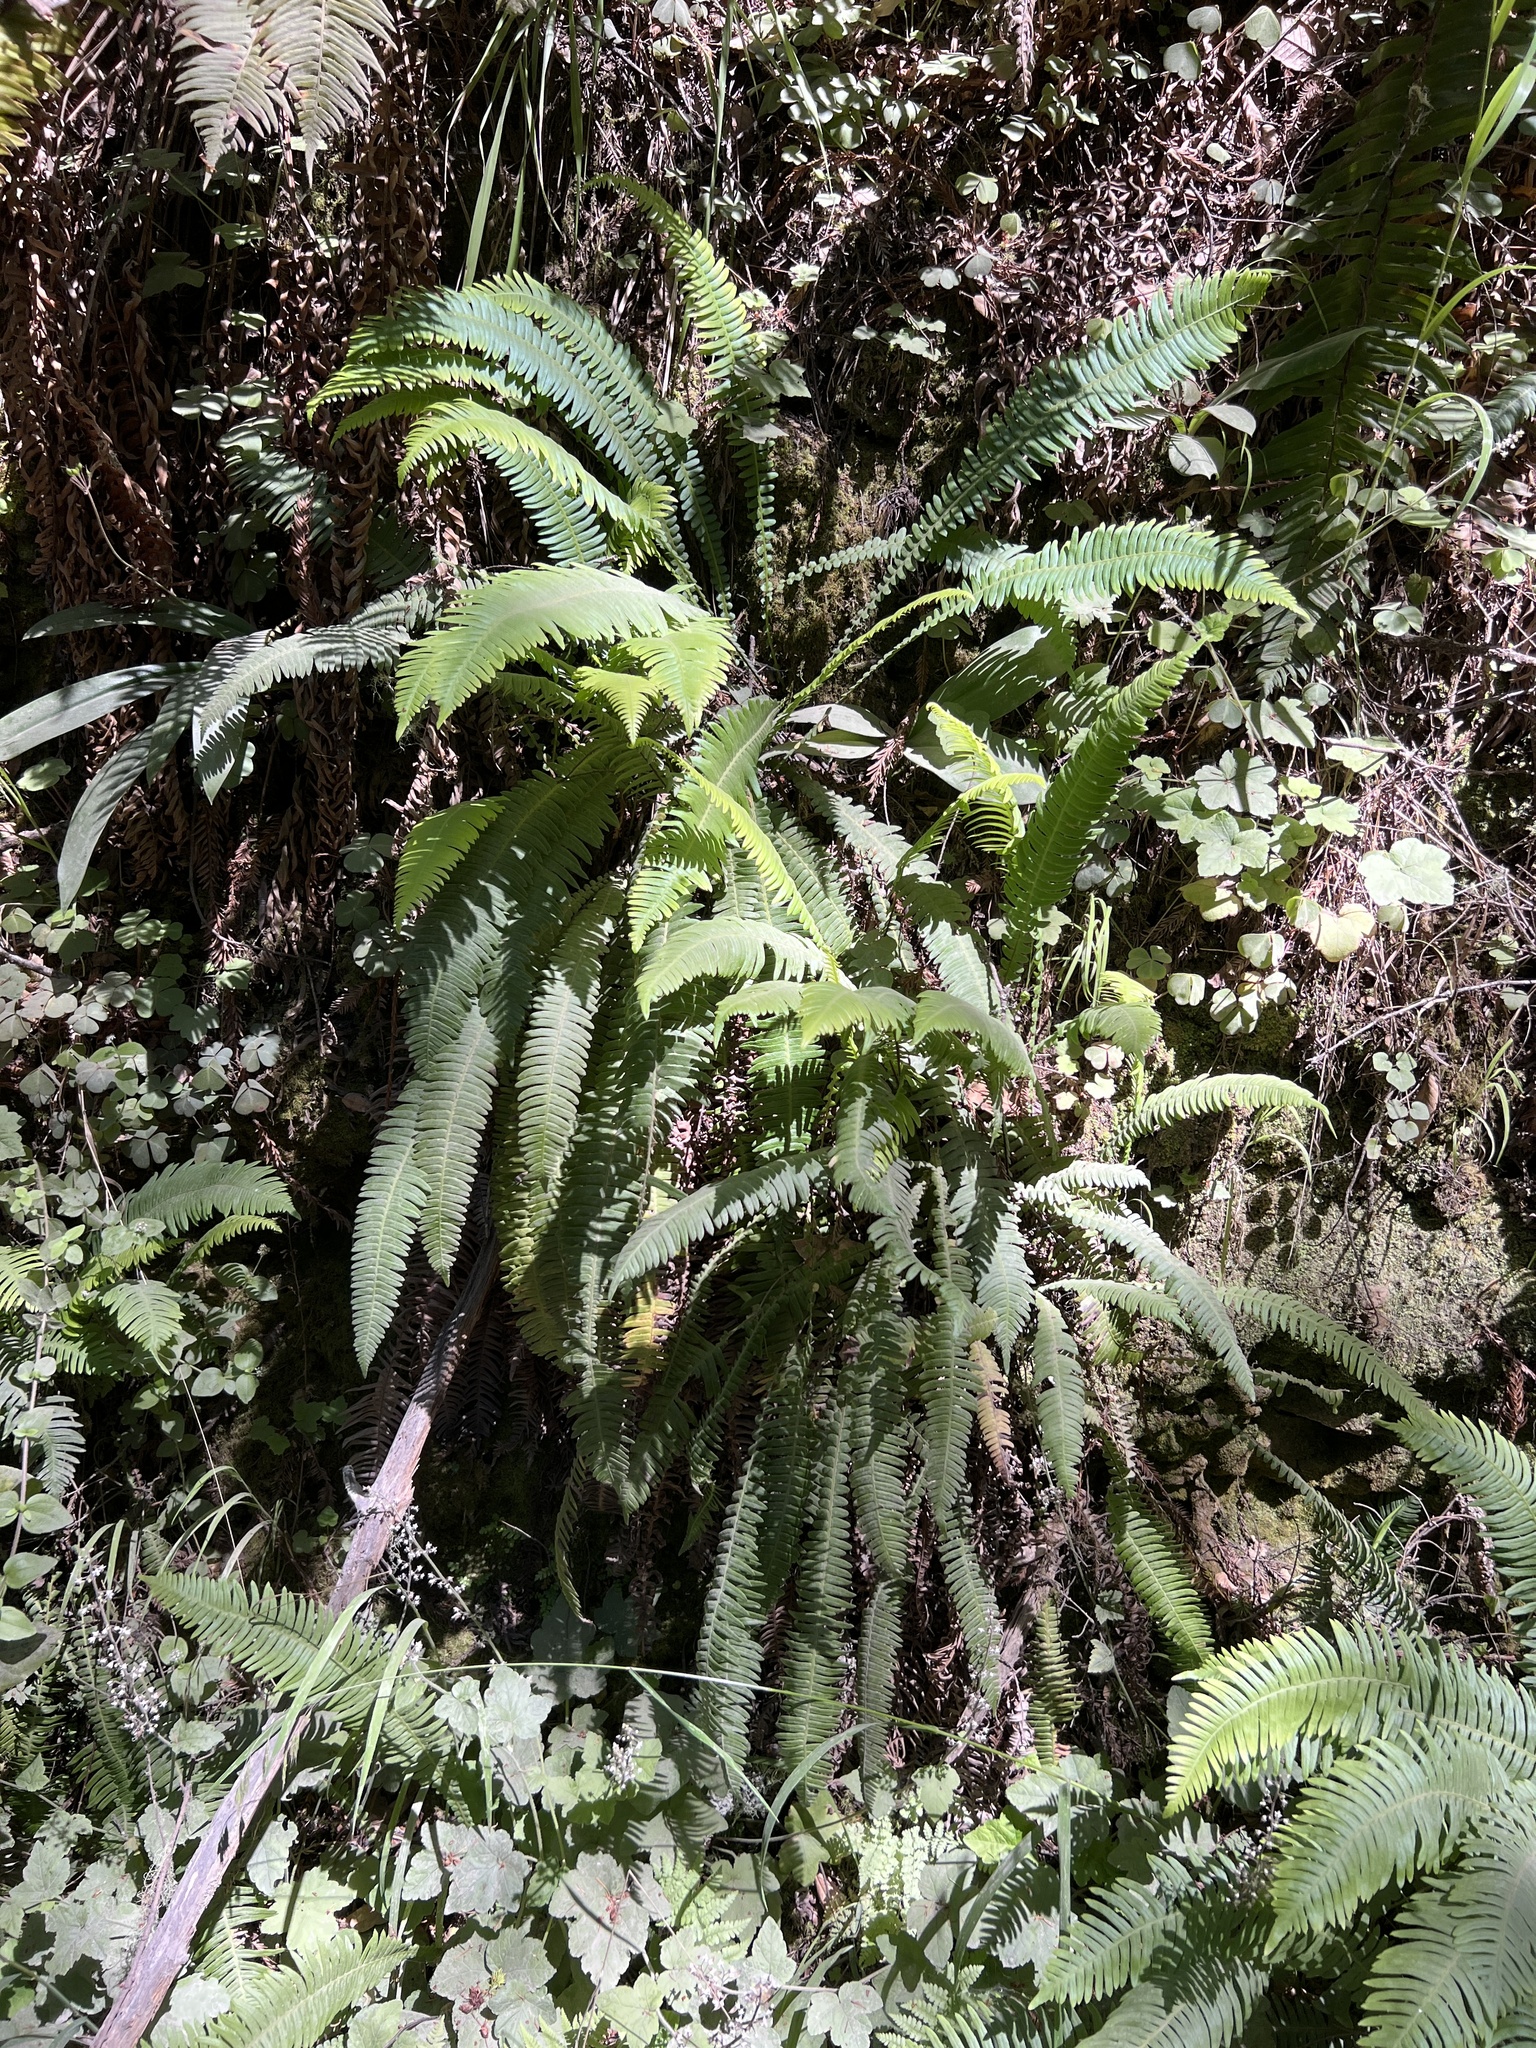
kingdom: Plantae
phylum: Tracheophyta
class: Polypodiopsida
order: Polypodiales
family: Blechnaceae
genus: Struthiopteris
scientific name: Struthiopteris spicant
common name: Deer fern
